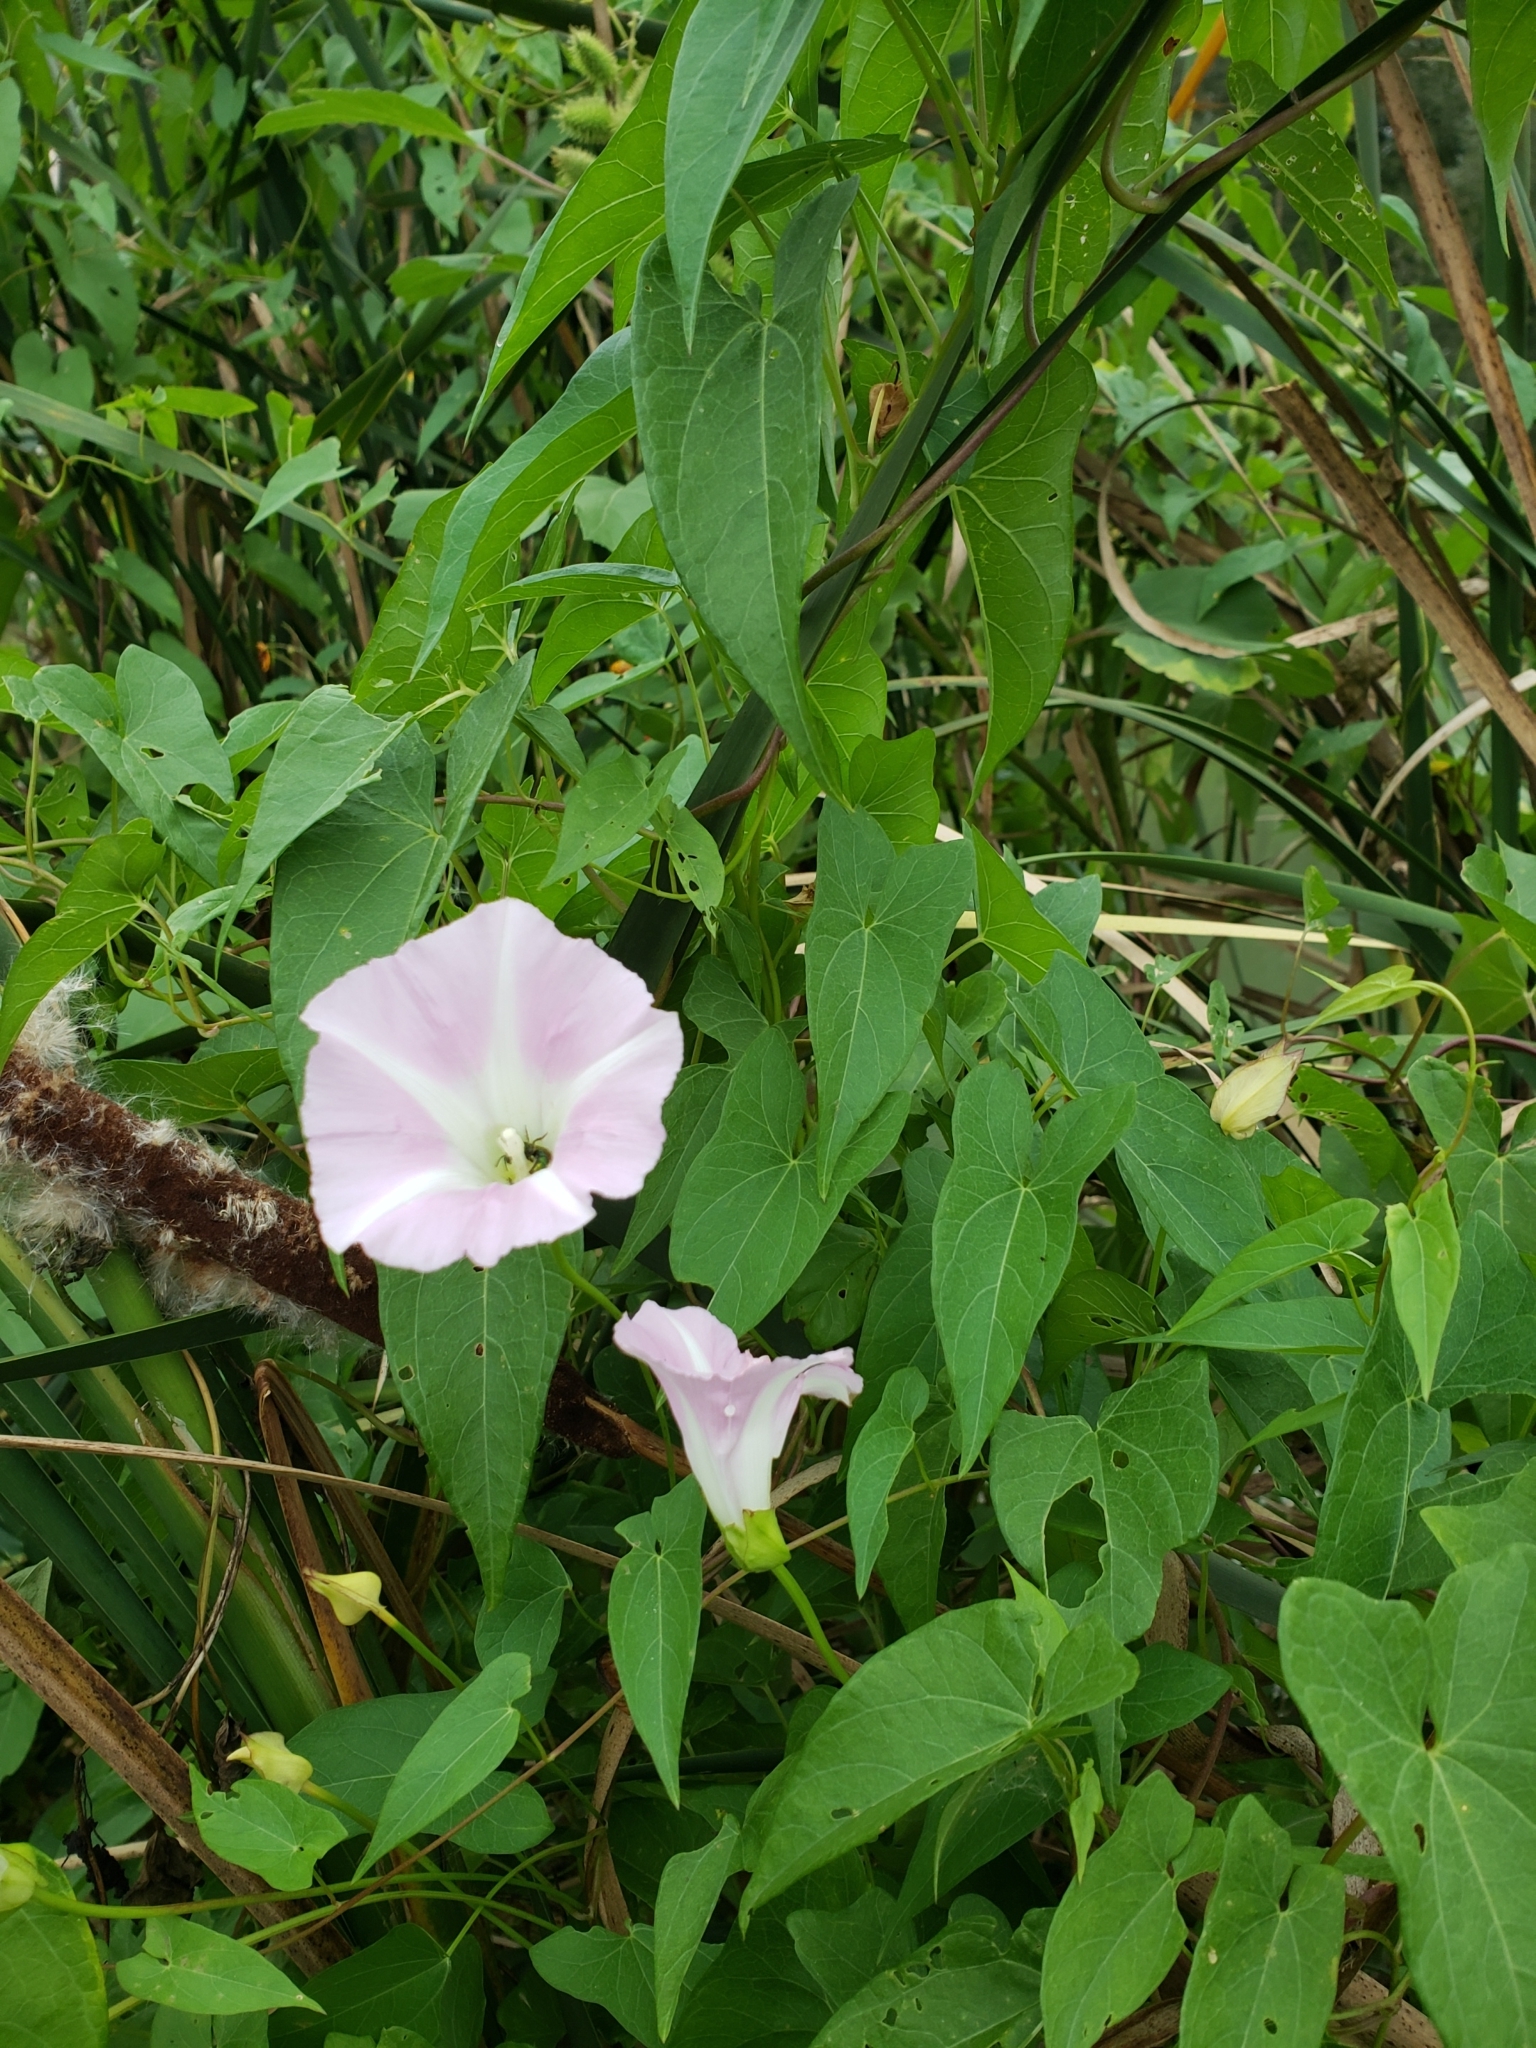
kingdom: Plantae
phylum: Tracheophyta
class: Magnoliopsida
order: Solanales
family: Convolvulaceae
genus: Calystegia
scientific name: Calystegia sepium
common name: Hedge bindweed
